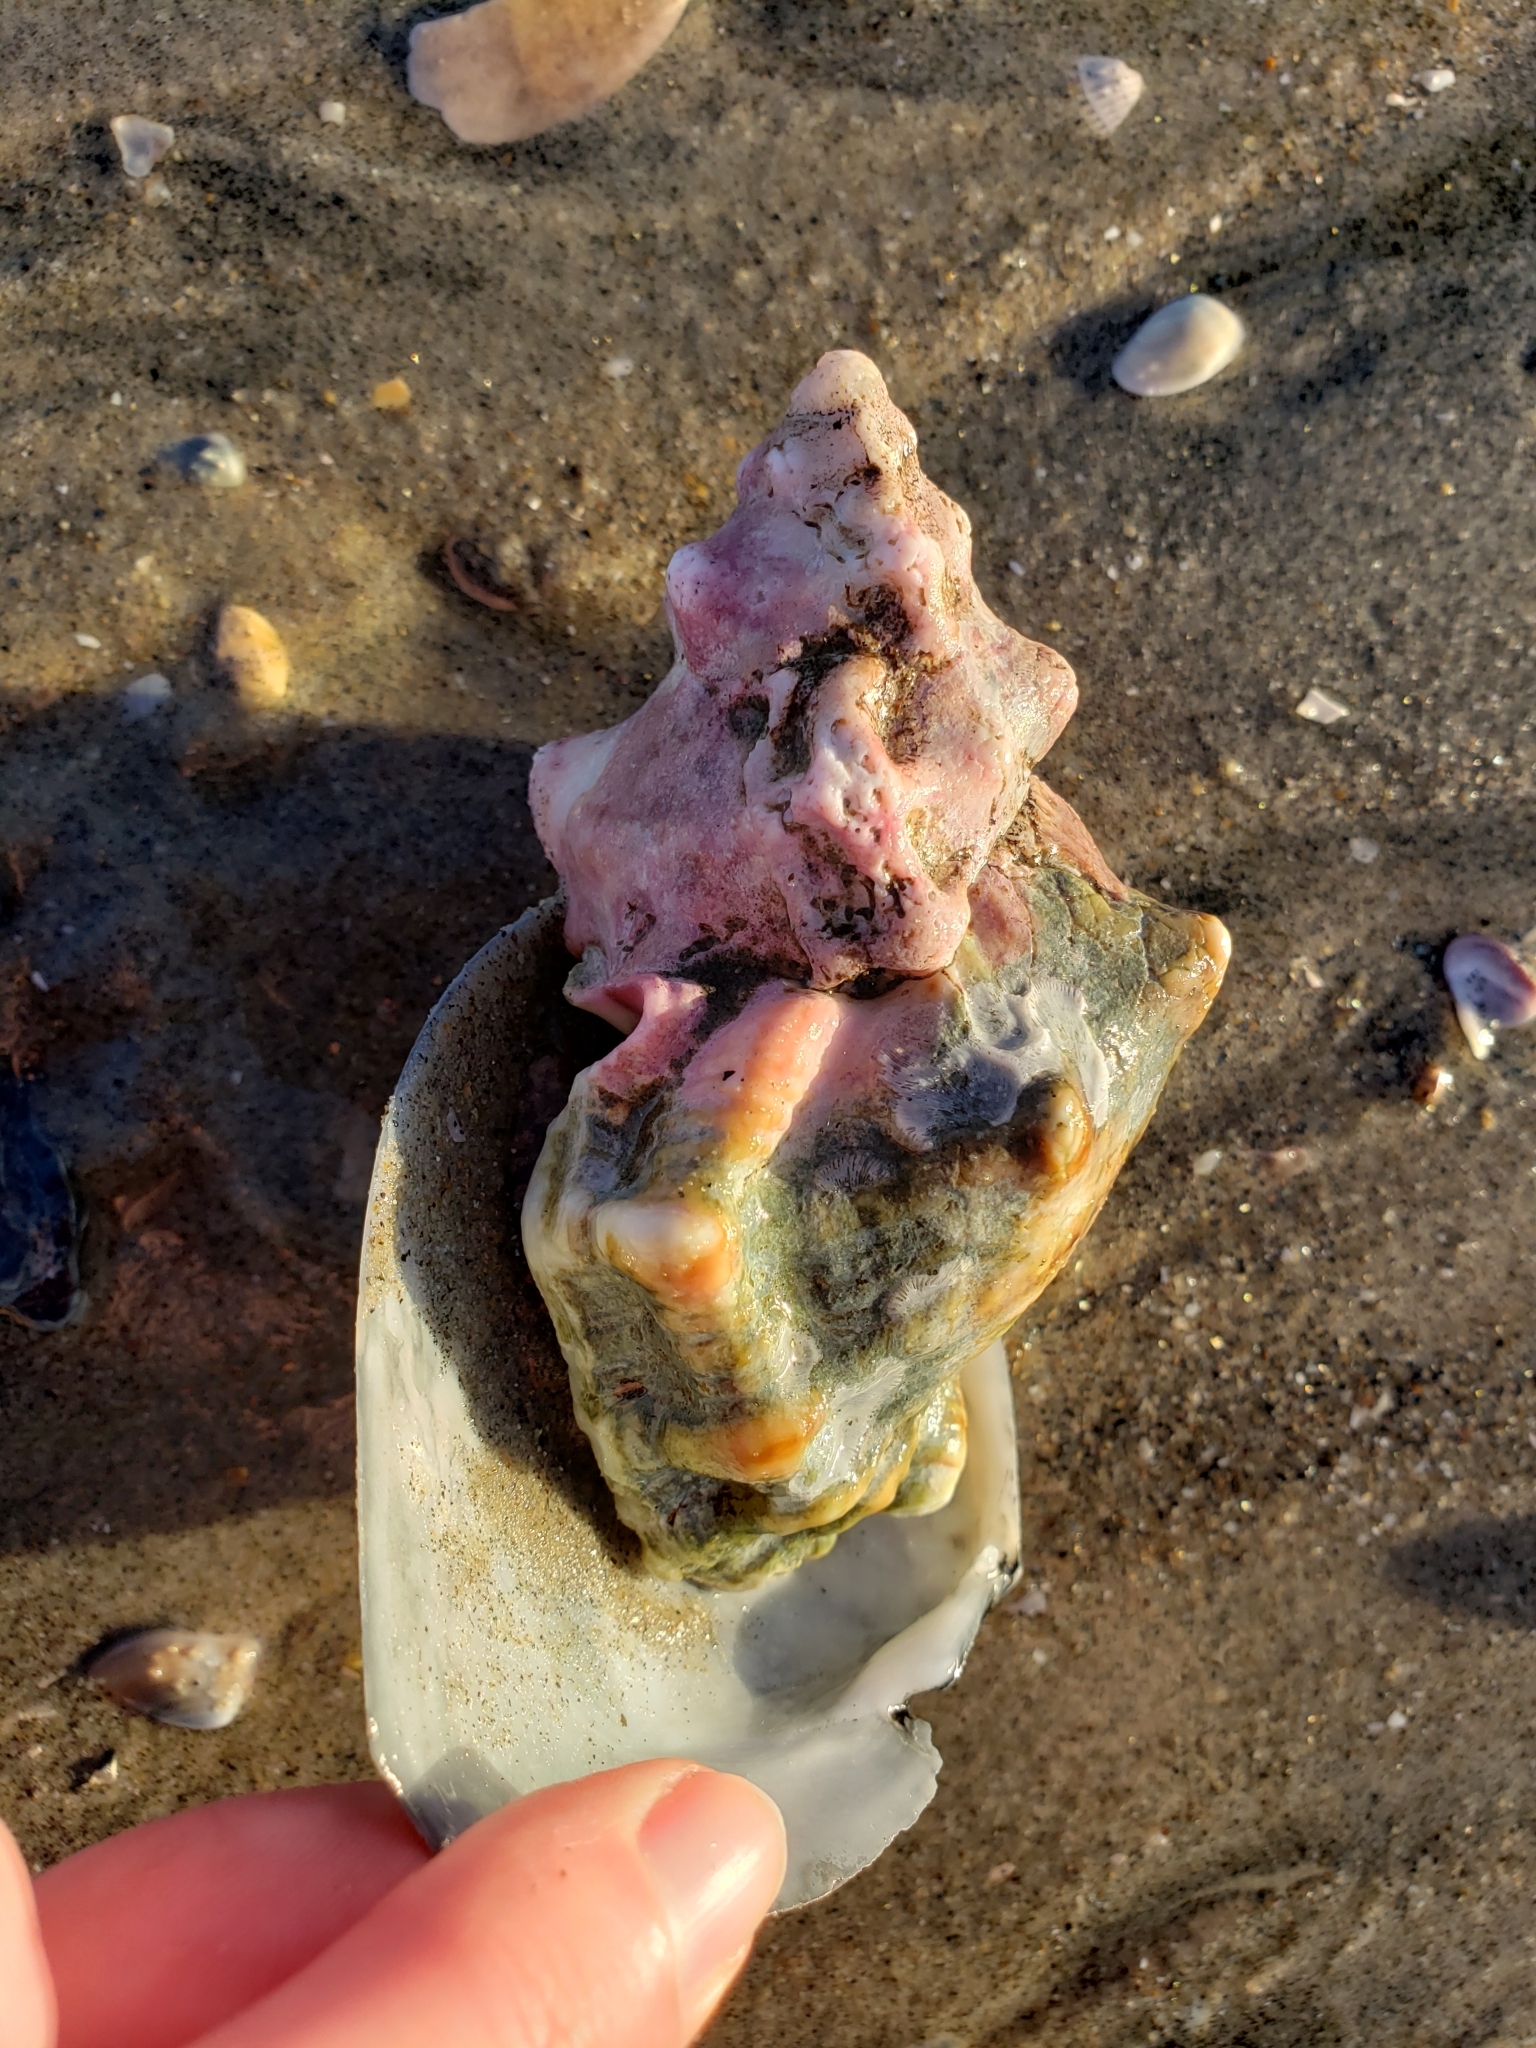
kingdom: Animalia
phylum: Mollusca
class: Gastropoda
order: Littorinimorpha
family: Bursidae
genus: Crossata
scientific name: Crossata californica
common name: California frogsnail
